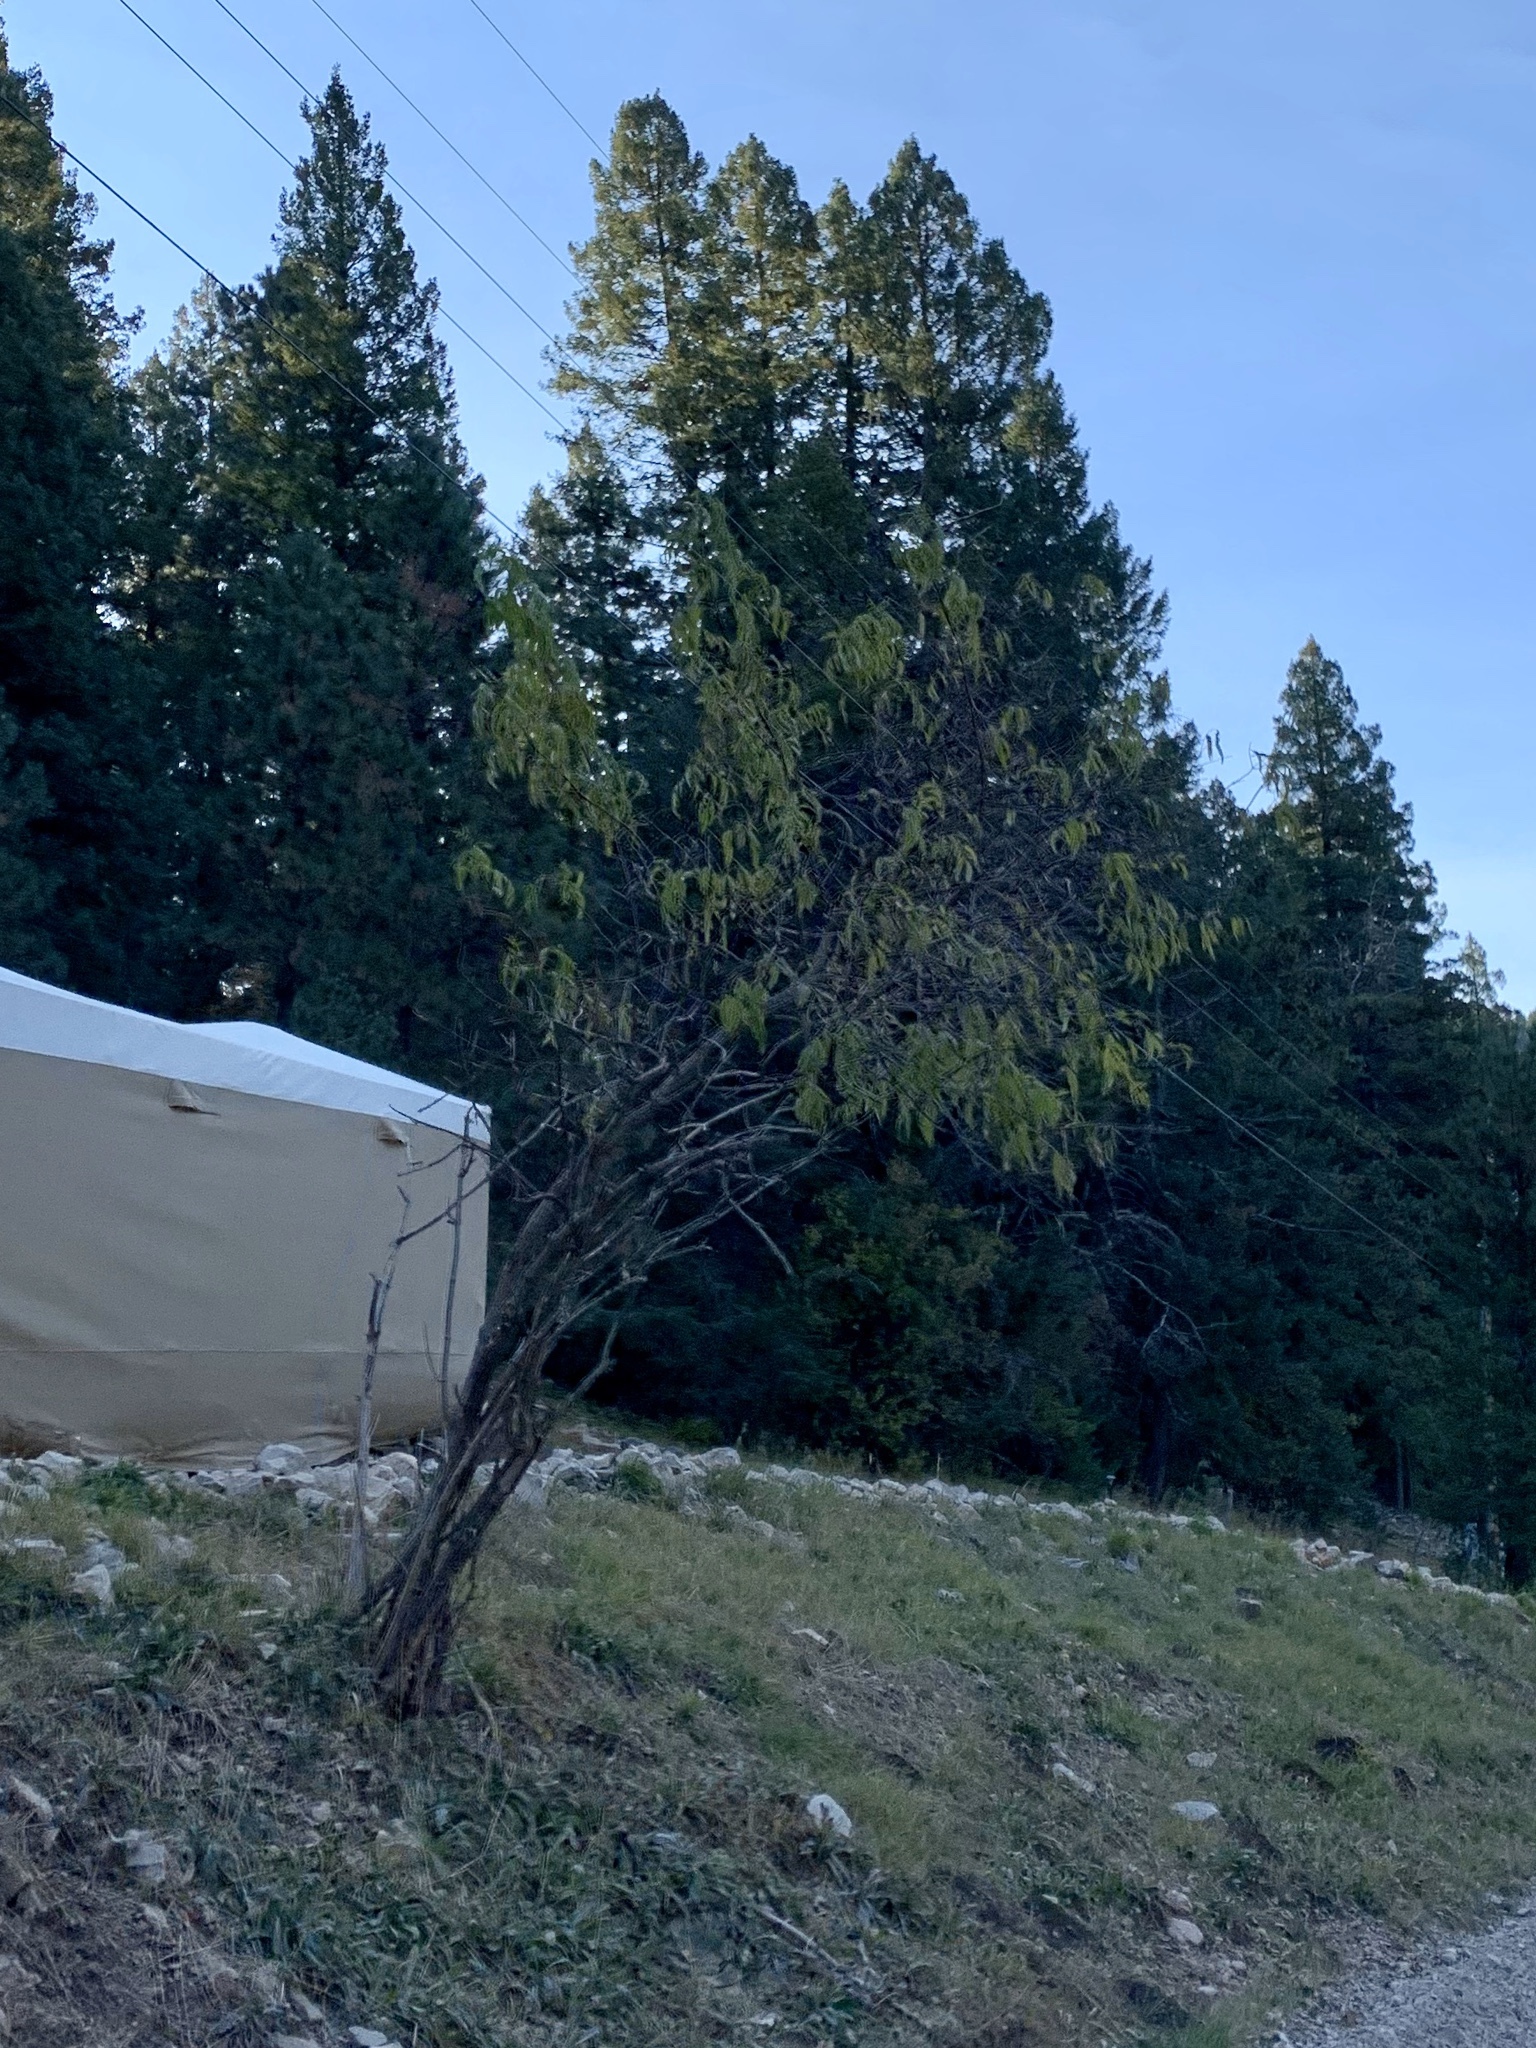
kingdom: Plantae
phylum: Tracheophyta
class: Magnoliopsida
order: Dipsacales
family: Viburnaceae
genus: Sambucus
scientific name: Sambucus cerulea
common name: Blue elder
